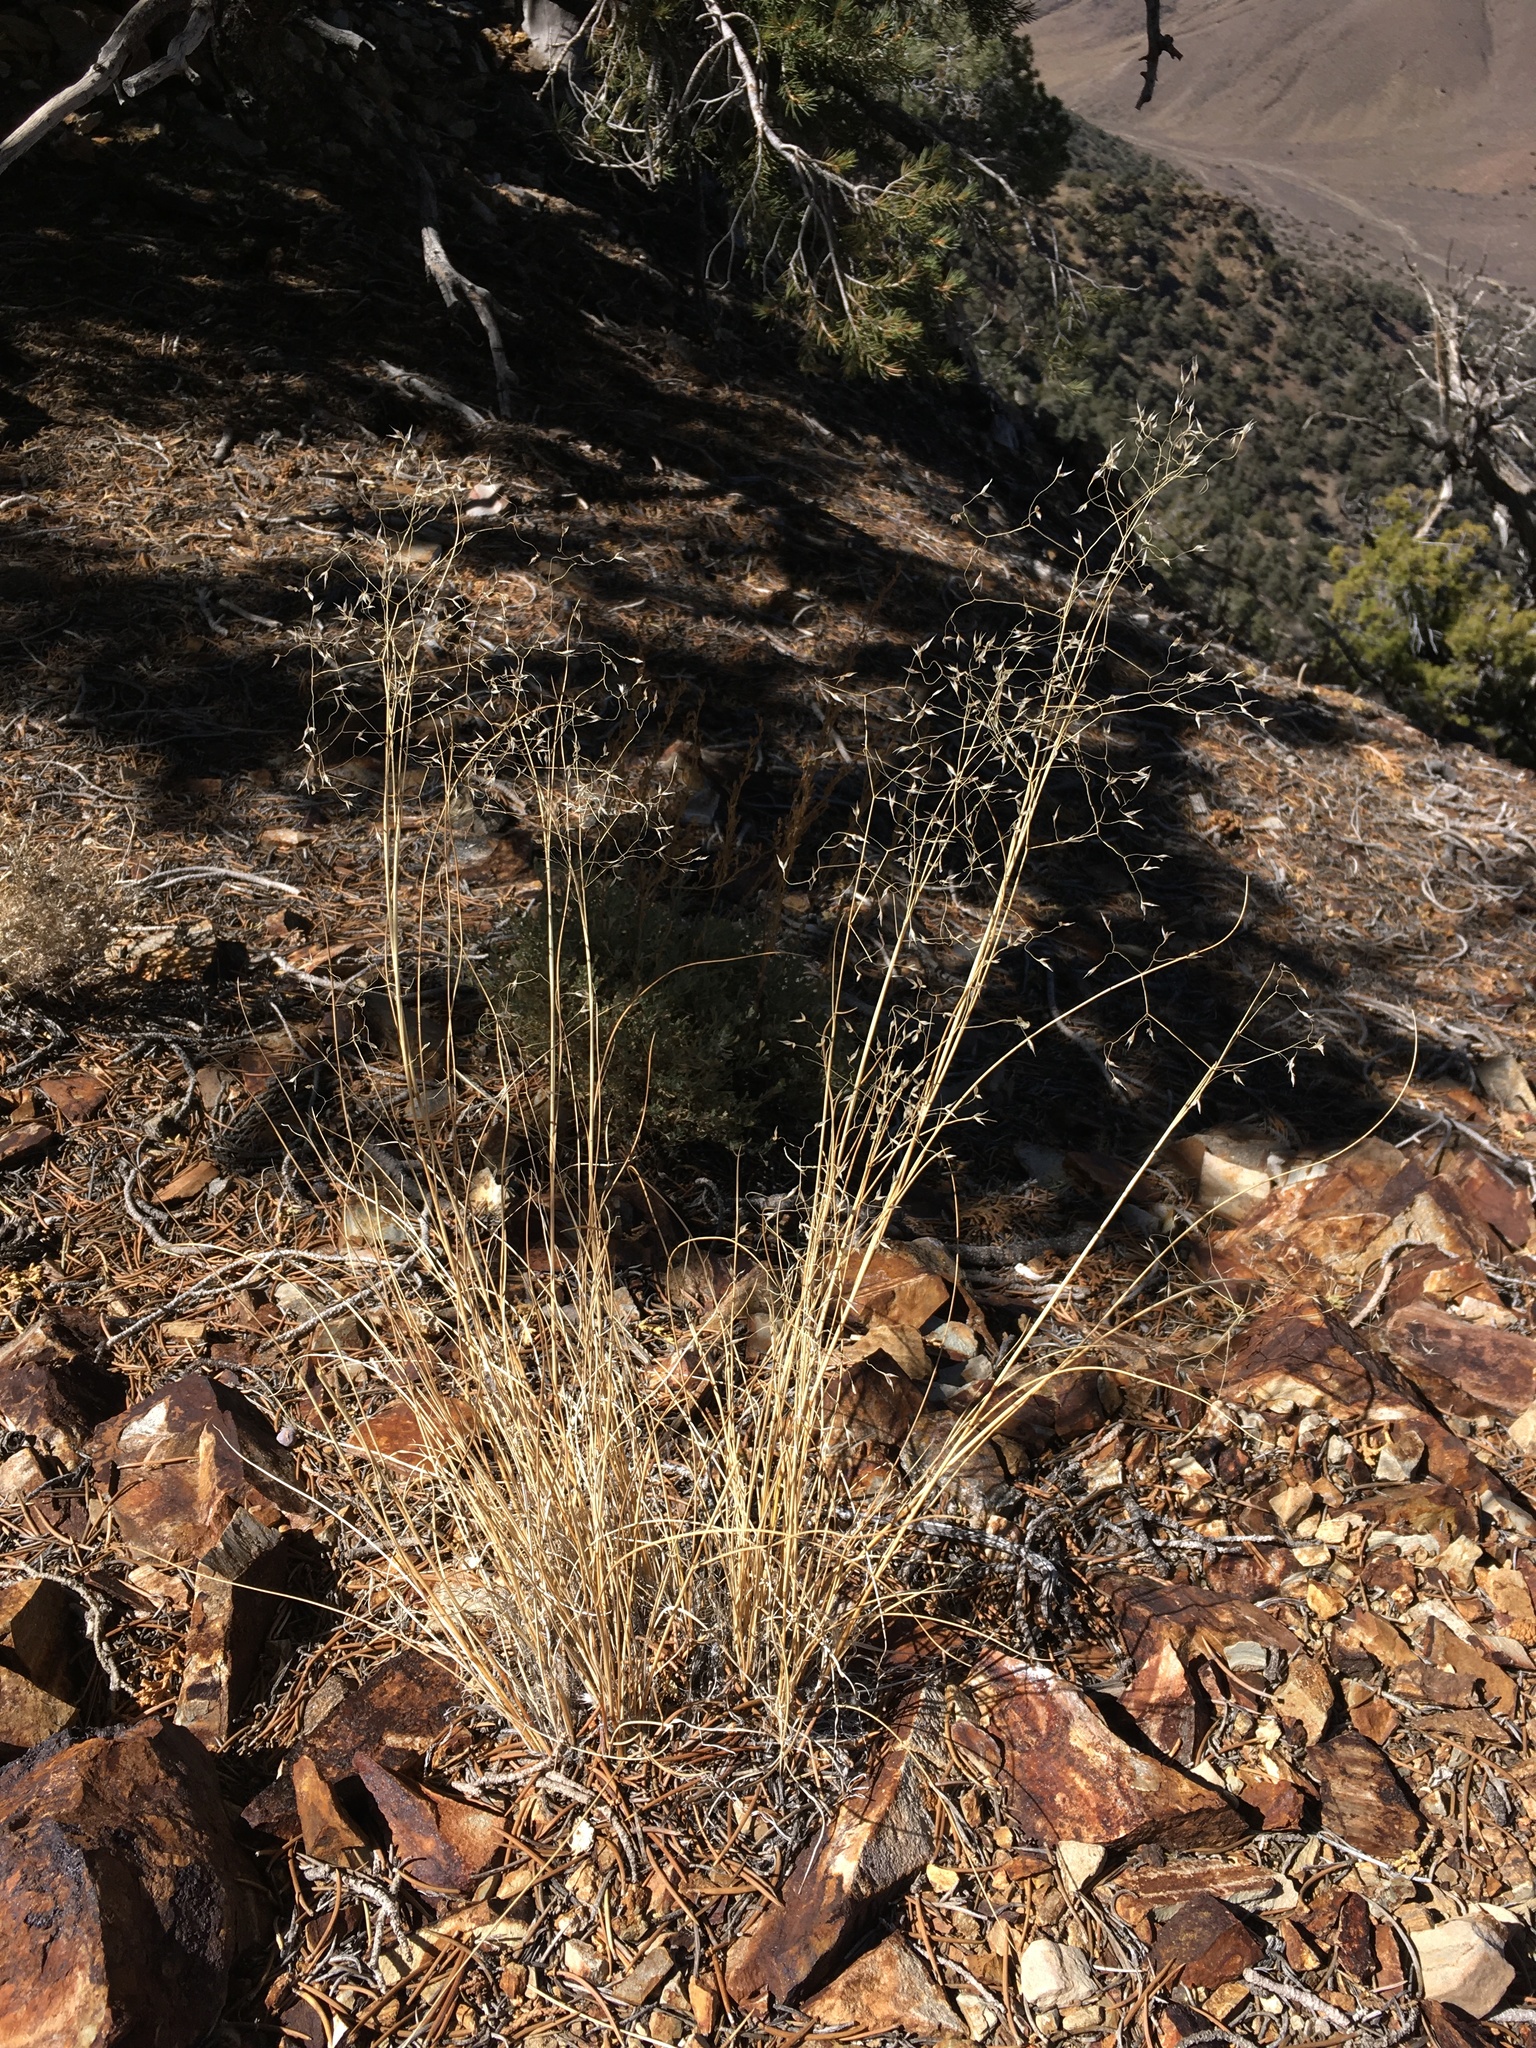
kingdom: Plantae
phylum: Tracheophyta
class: Liliopsida
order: Poales
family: Poaceae
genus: Eriocoma
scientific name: Eriocoma hymenoides
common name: Indian mountain ricegrass
